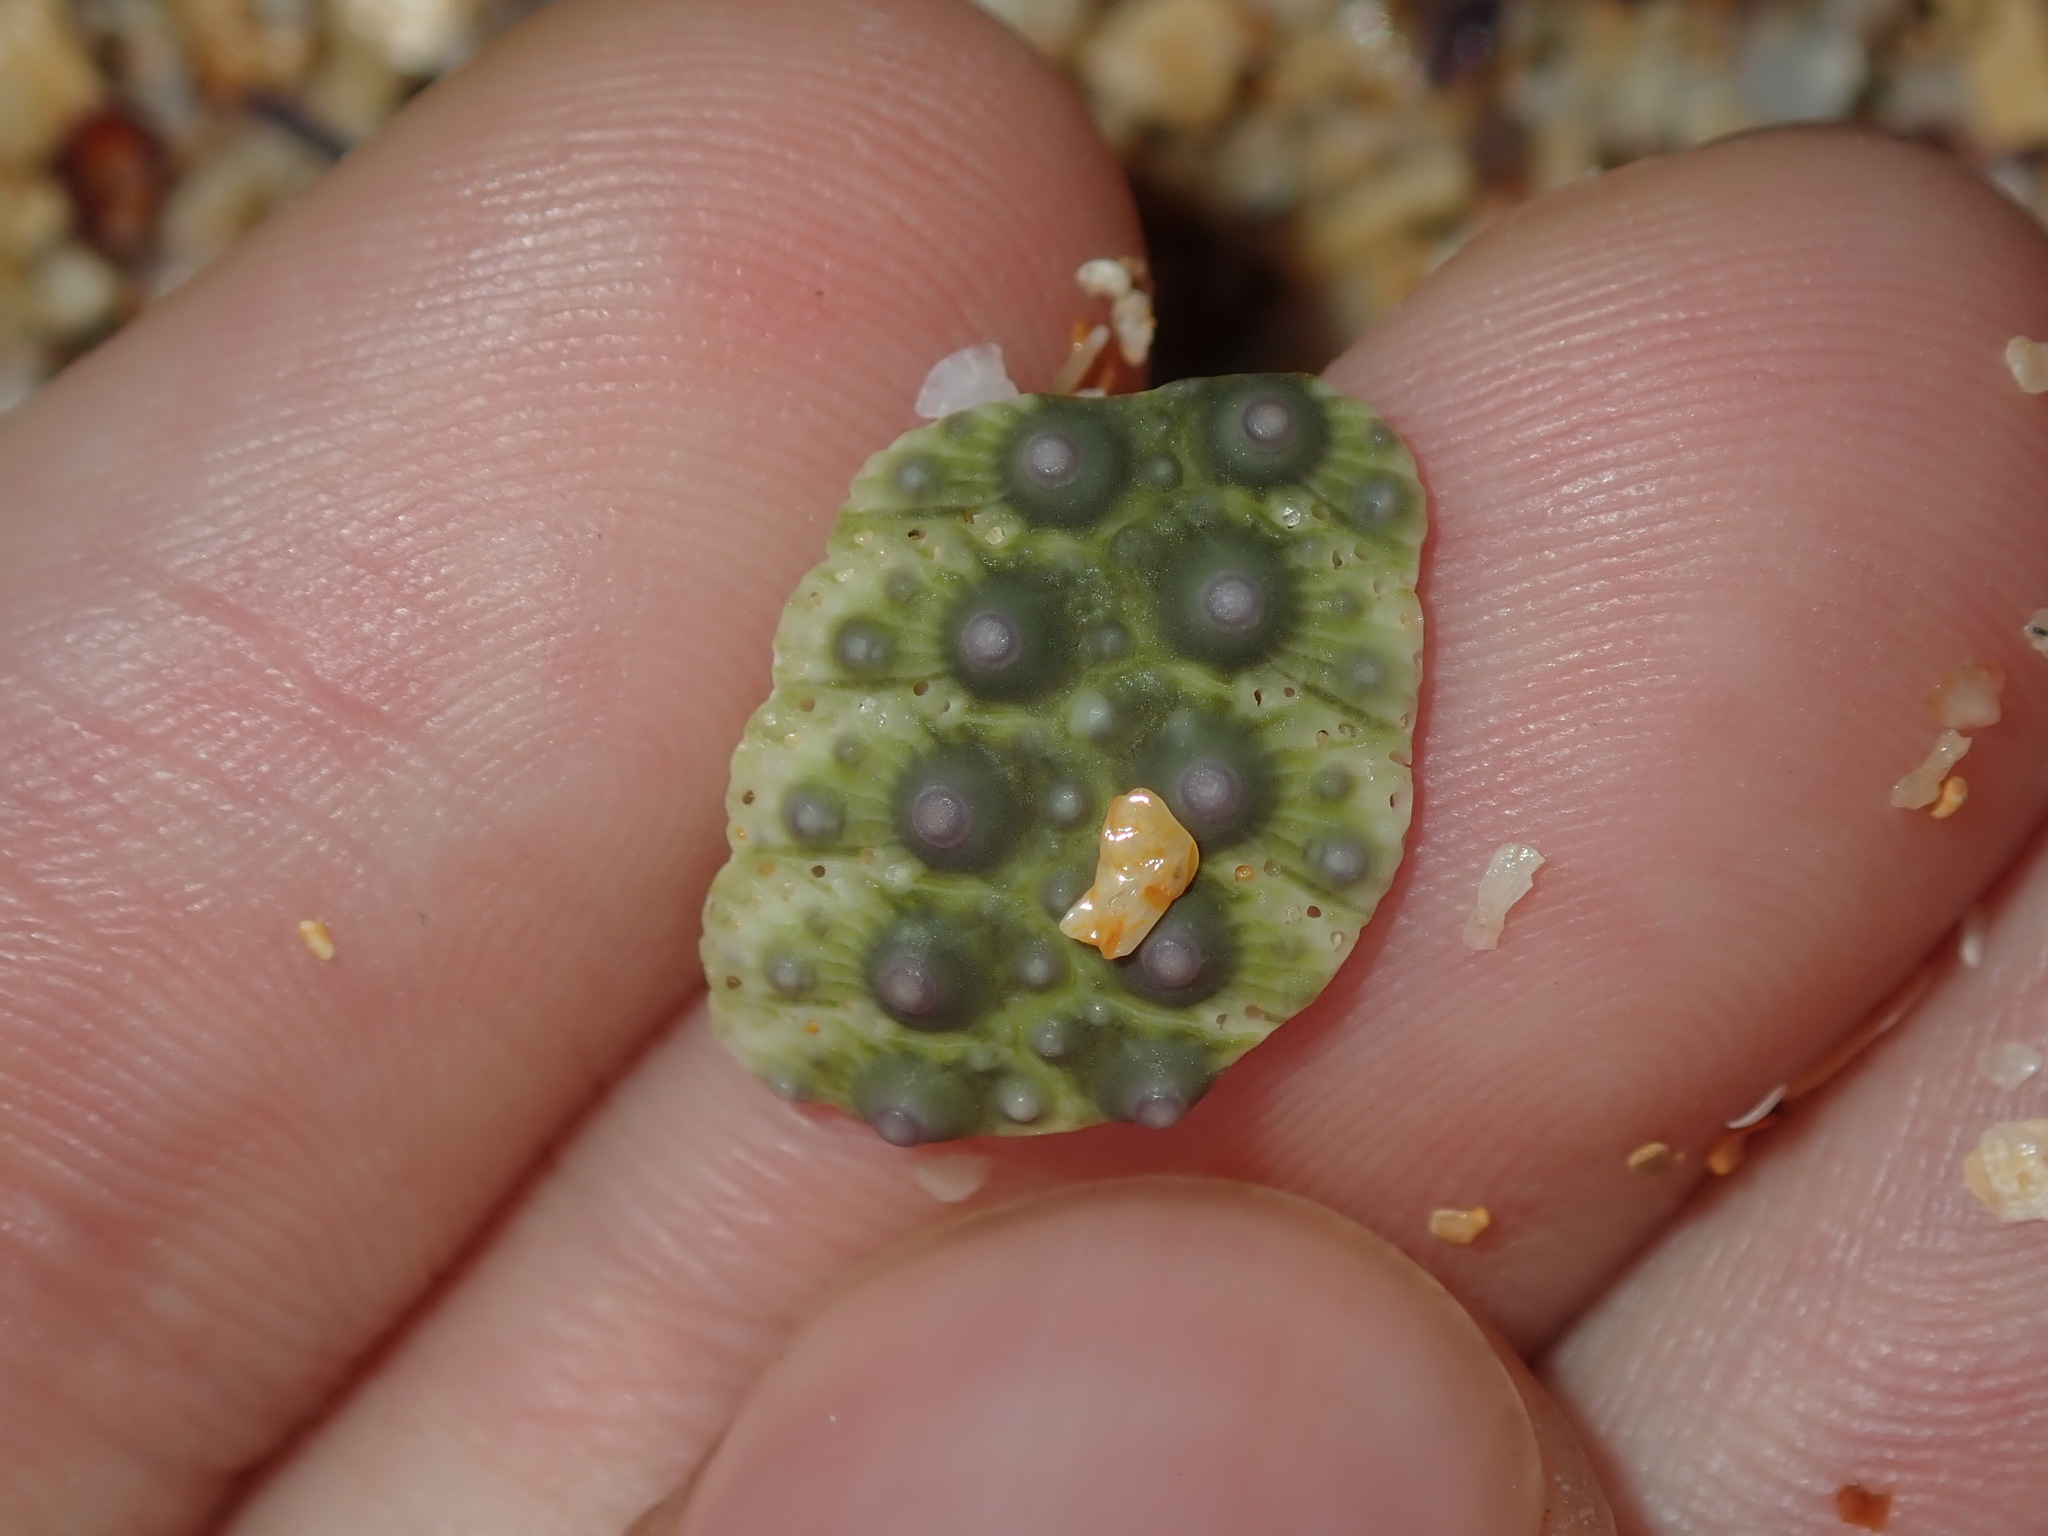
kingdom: Animalia
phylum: Echinodermata
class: Echinoidea
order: Camarodonta
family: Echinometridae
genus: Heliocidaris
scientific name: Heliocidaris erythrogramma
